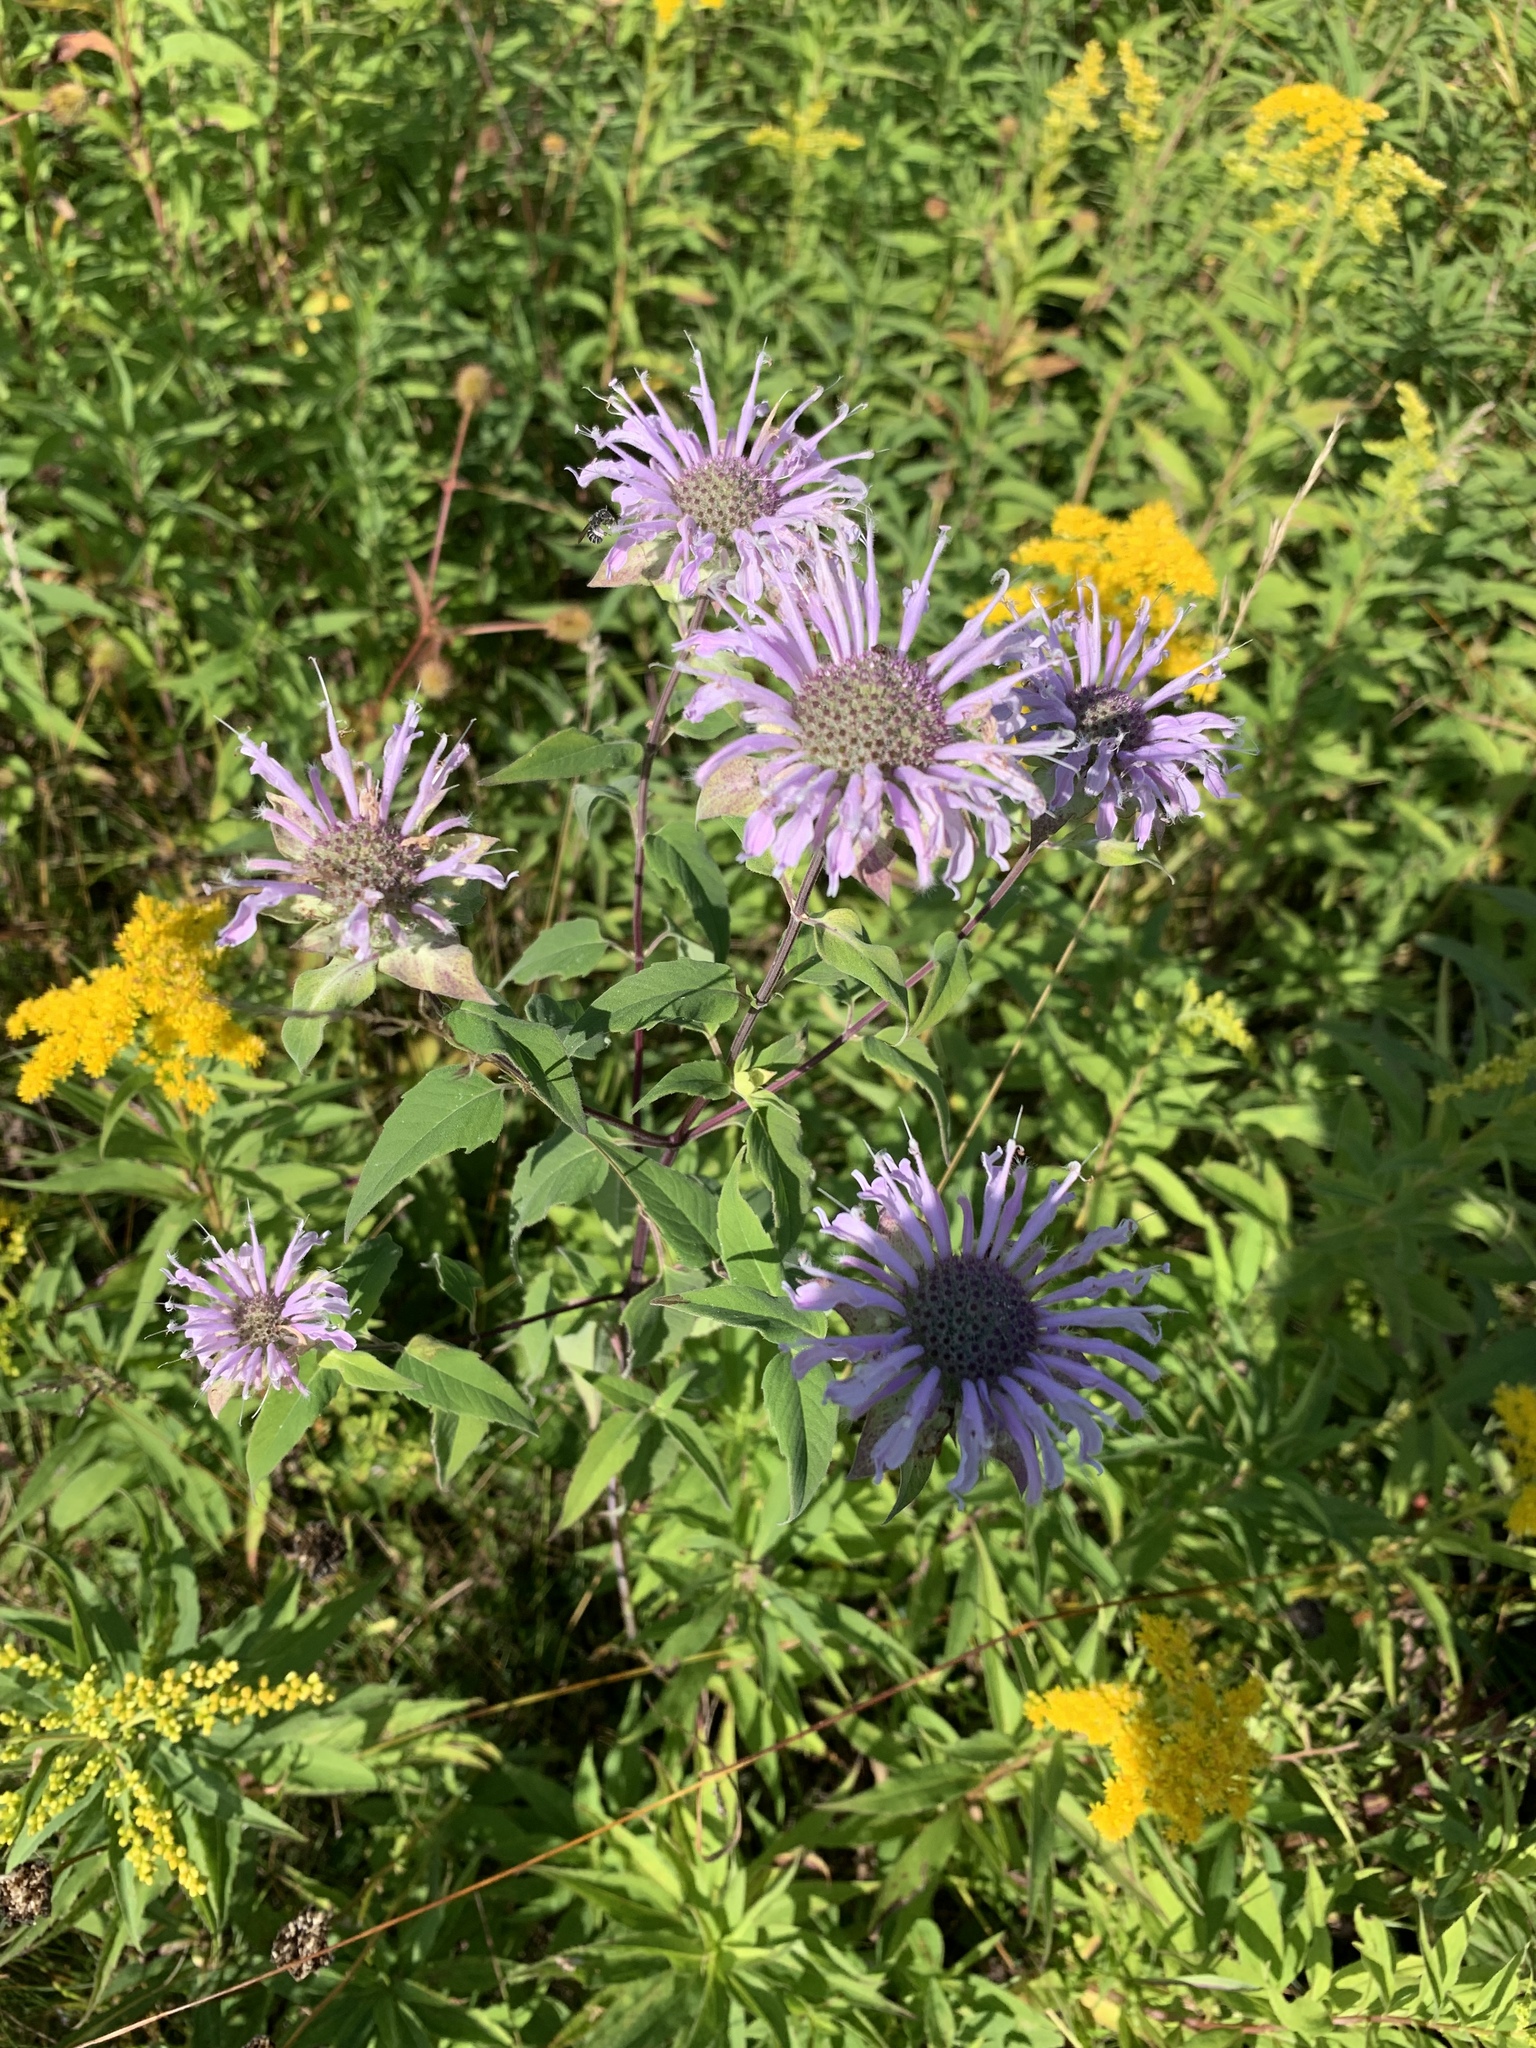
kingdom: Plantae
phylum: Tracheophyta
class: Magnoliopsida
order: Lamiales
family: Lamiaceae
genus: Monarda
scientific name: Monarda fistulosa
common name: Purple beebalm
